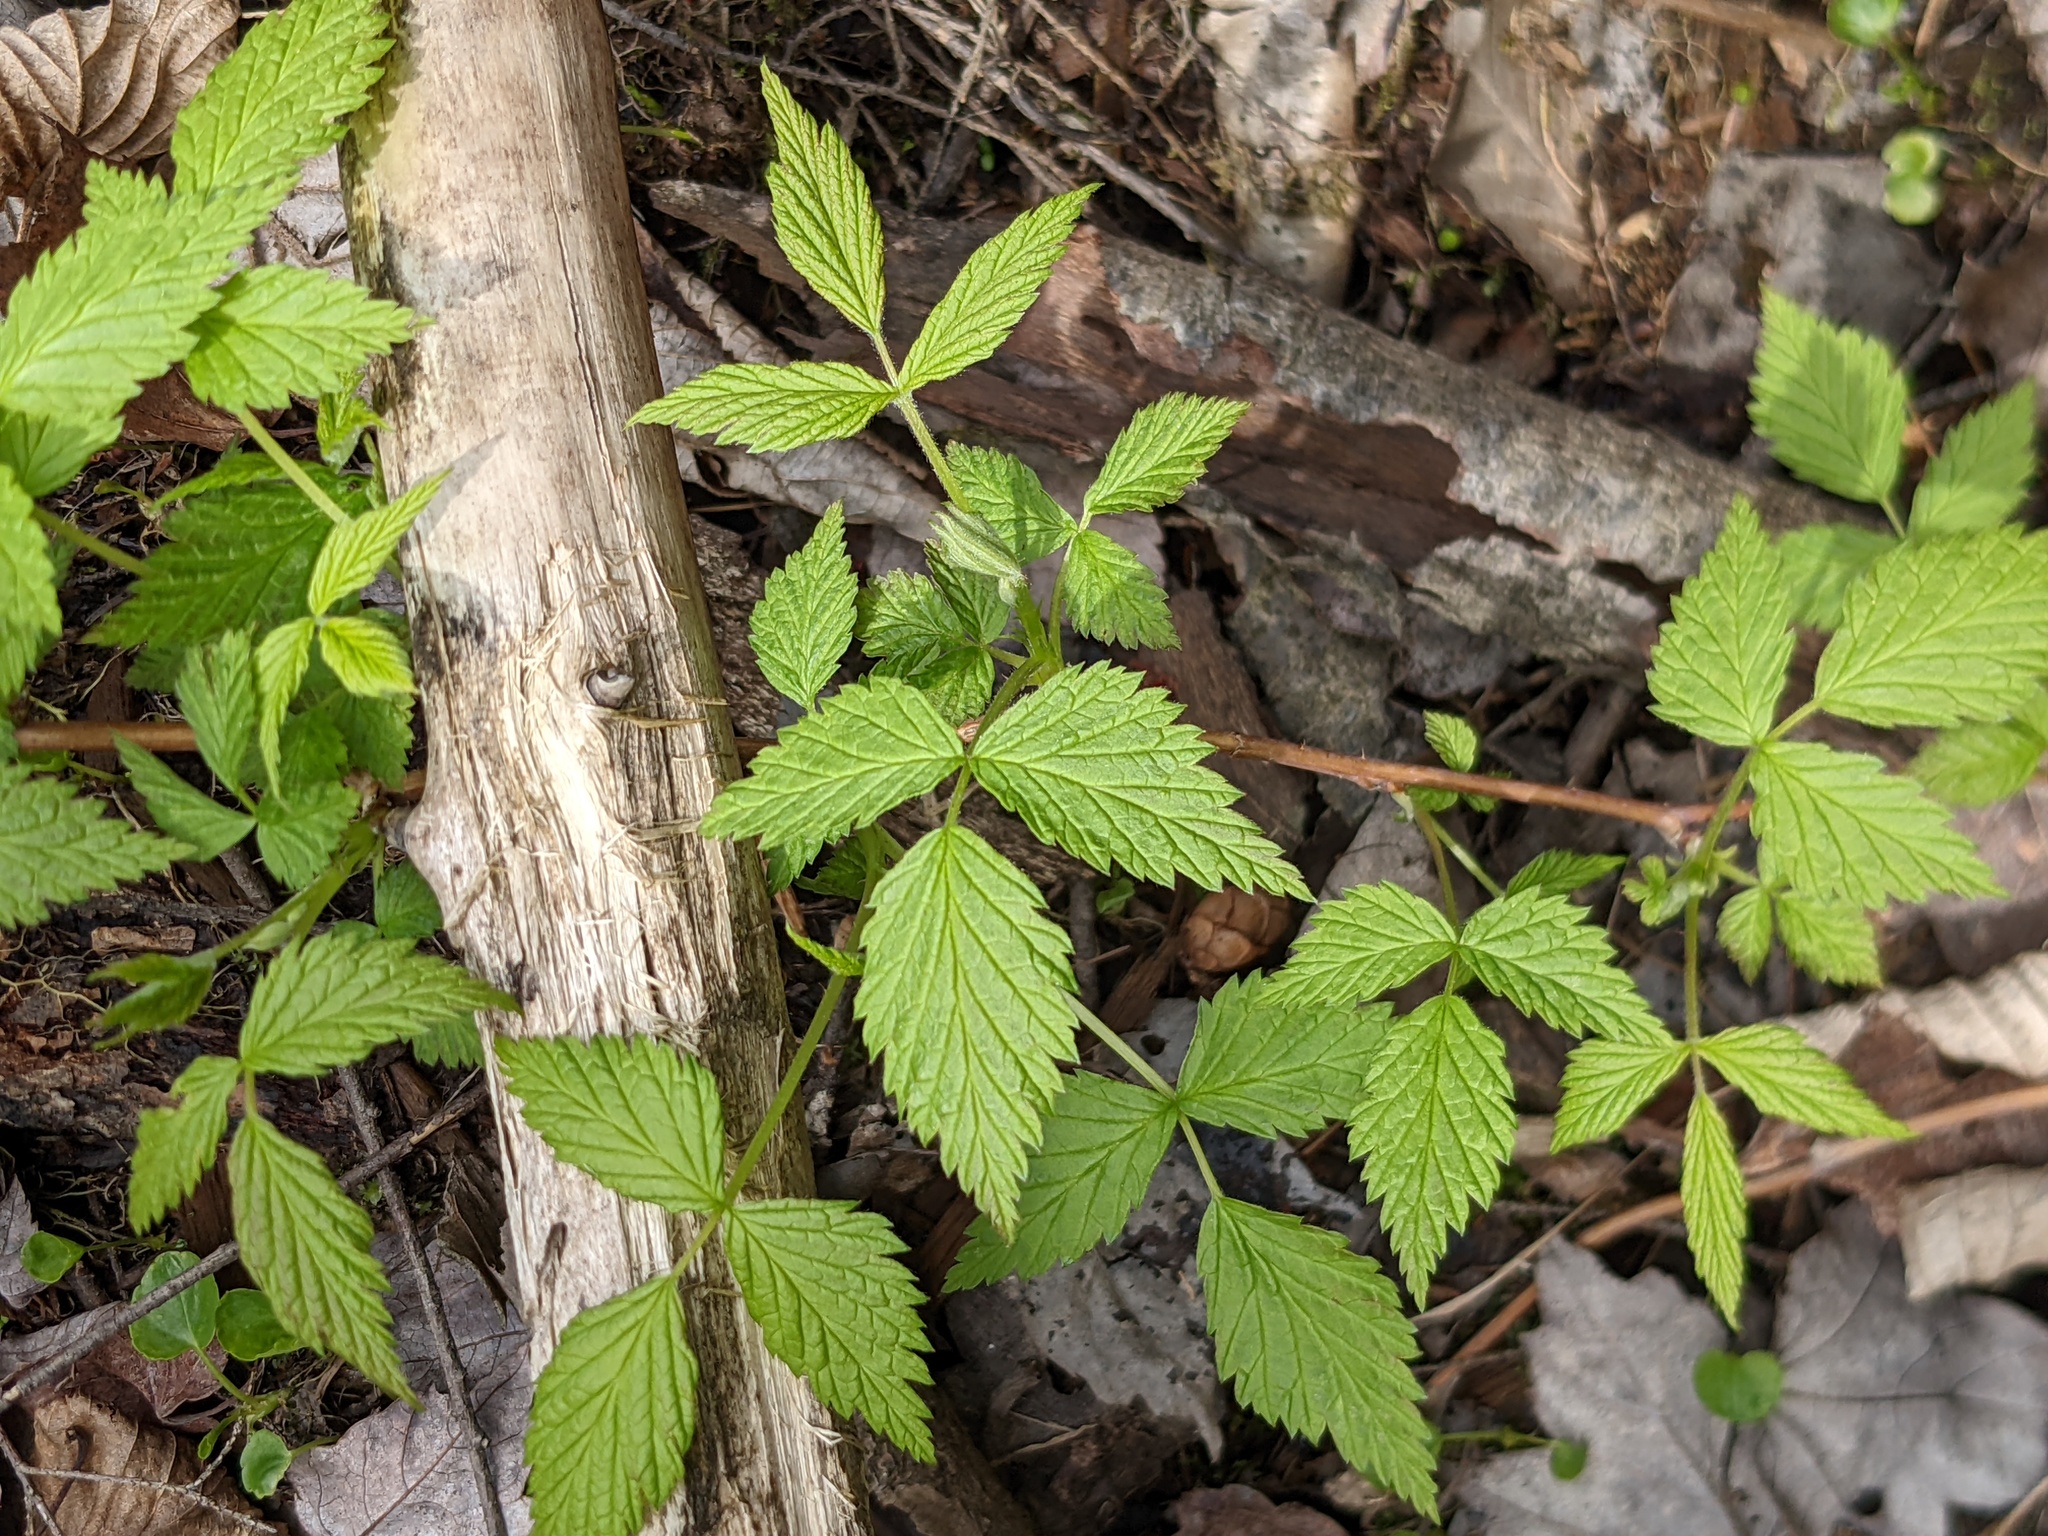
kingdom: Plantae
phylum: Tracheophyta
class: Magnoliopsida
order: Rosales
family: Rosaceae
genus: Rubus
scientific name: Rubus pubescens
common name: Dwarf raspberry
